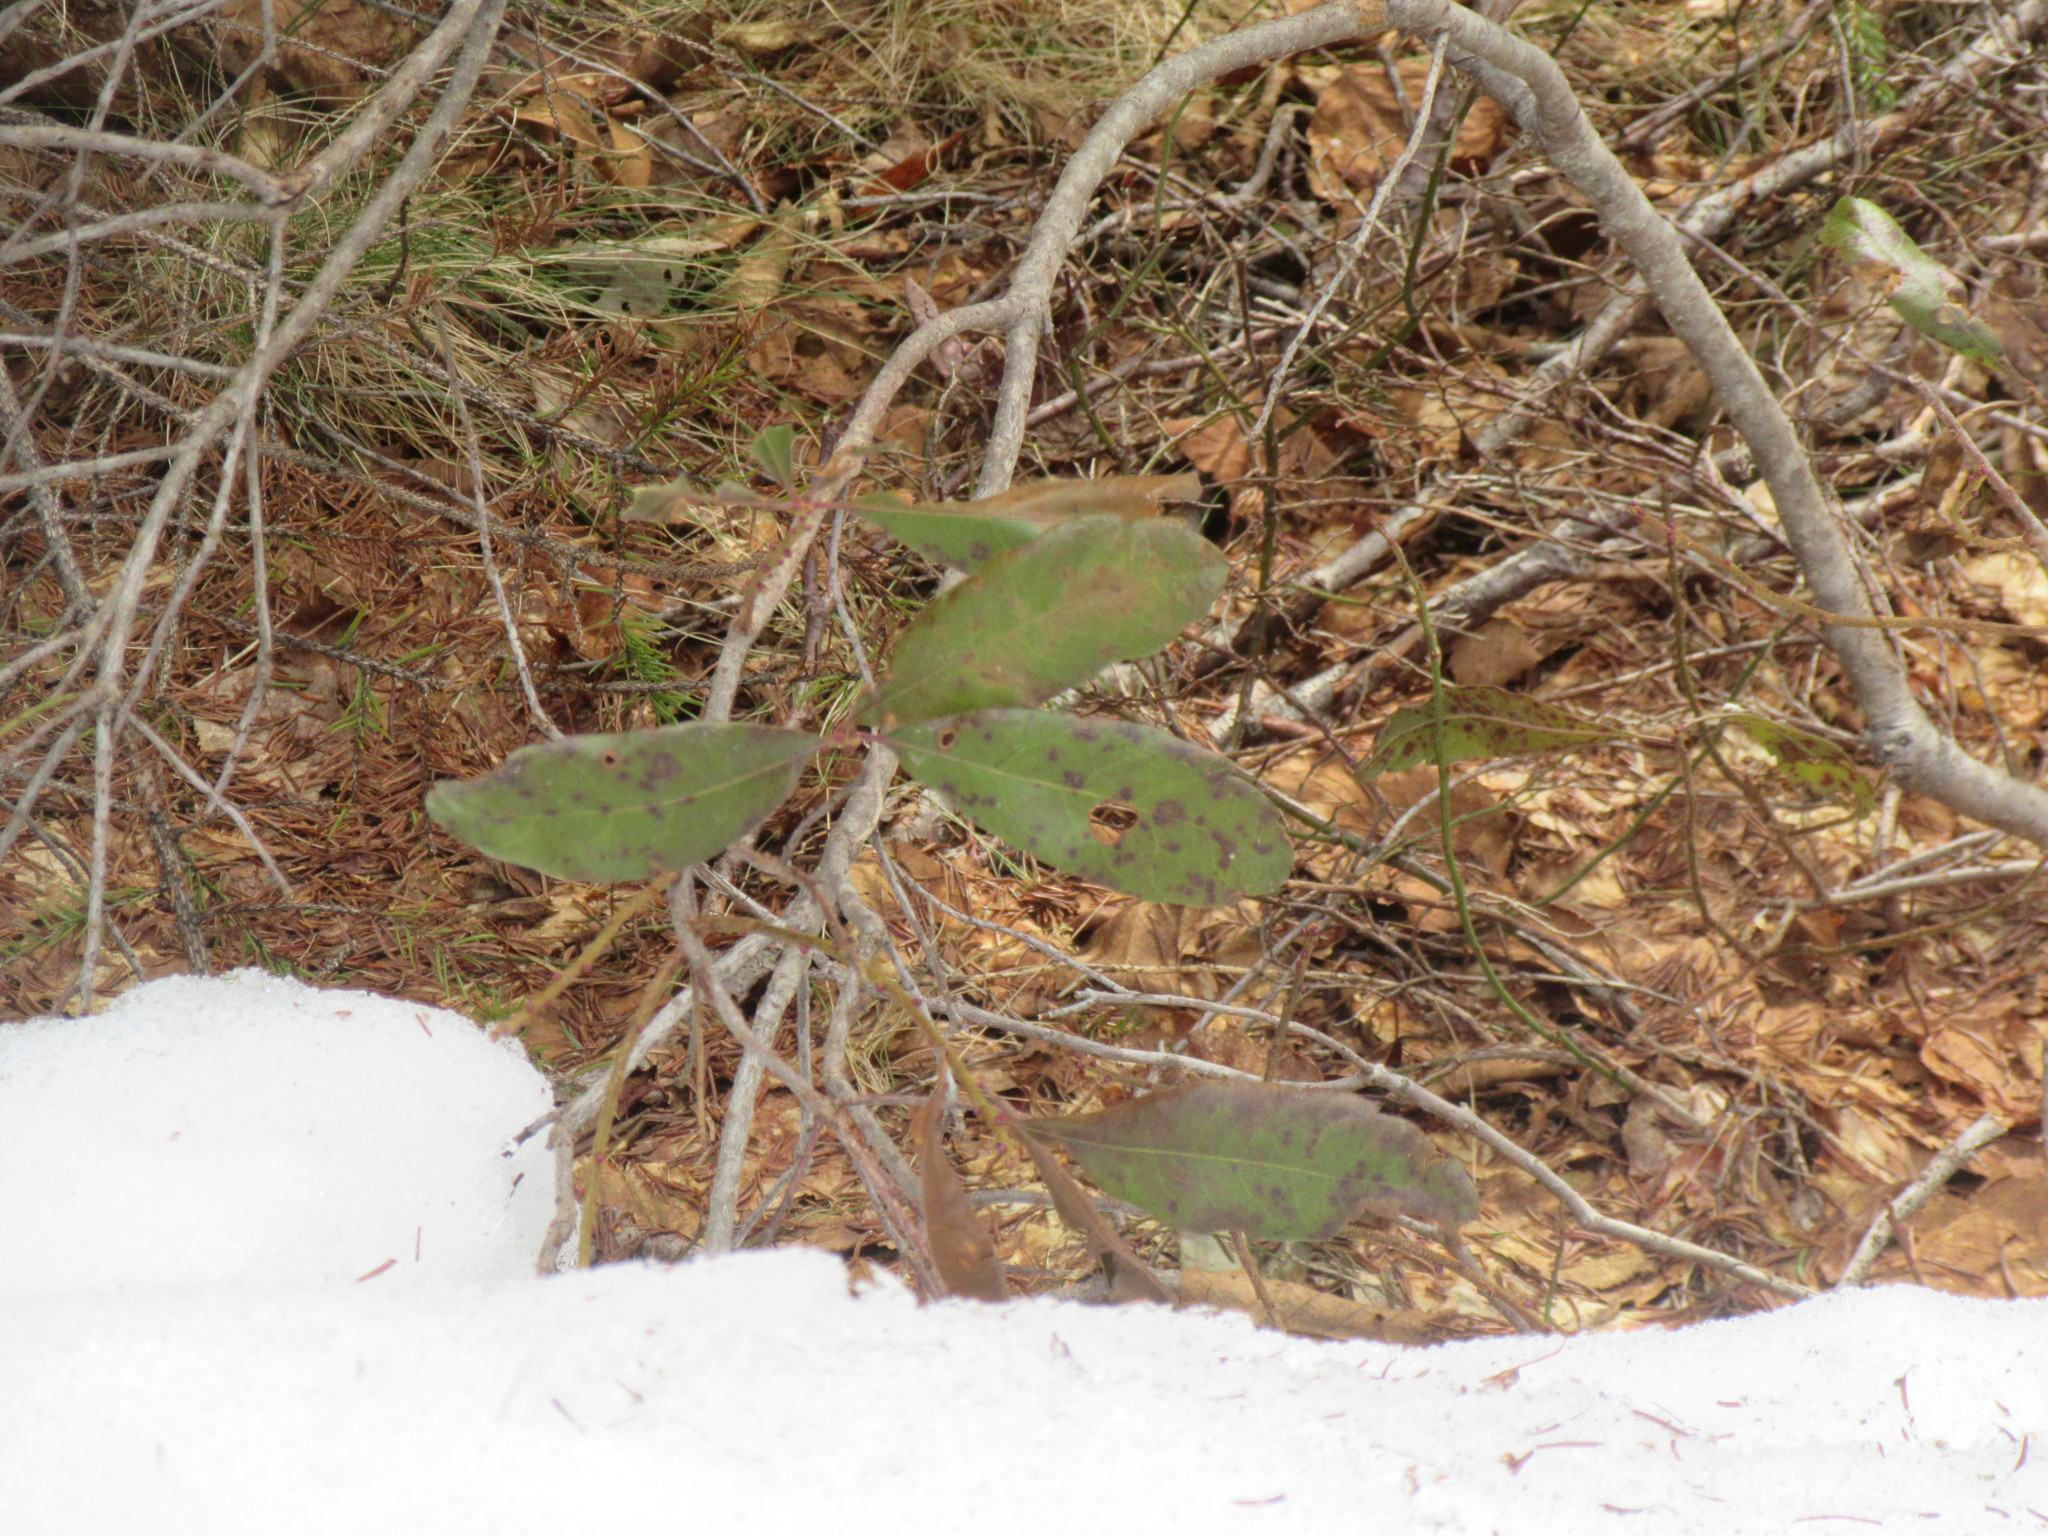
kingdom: Plantae
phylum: Tracheophyta
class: Magnoliopsida
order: Fagales
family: Myricaceae
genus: Morella
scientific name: Morella pensylvanica
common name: Northern bayberry
